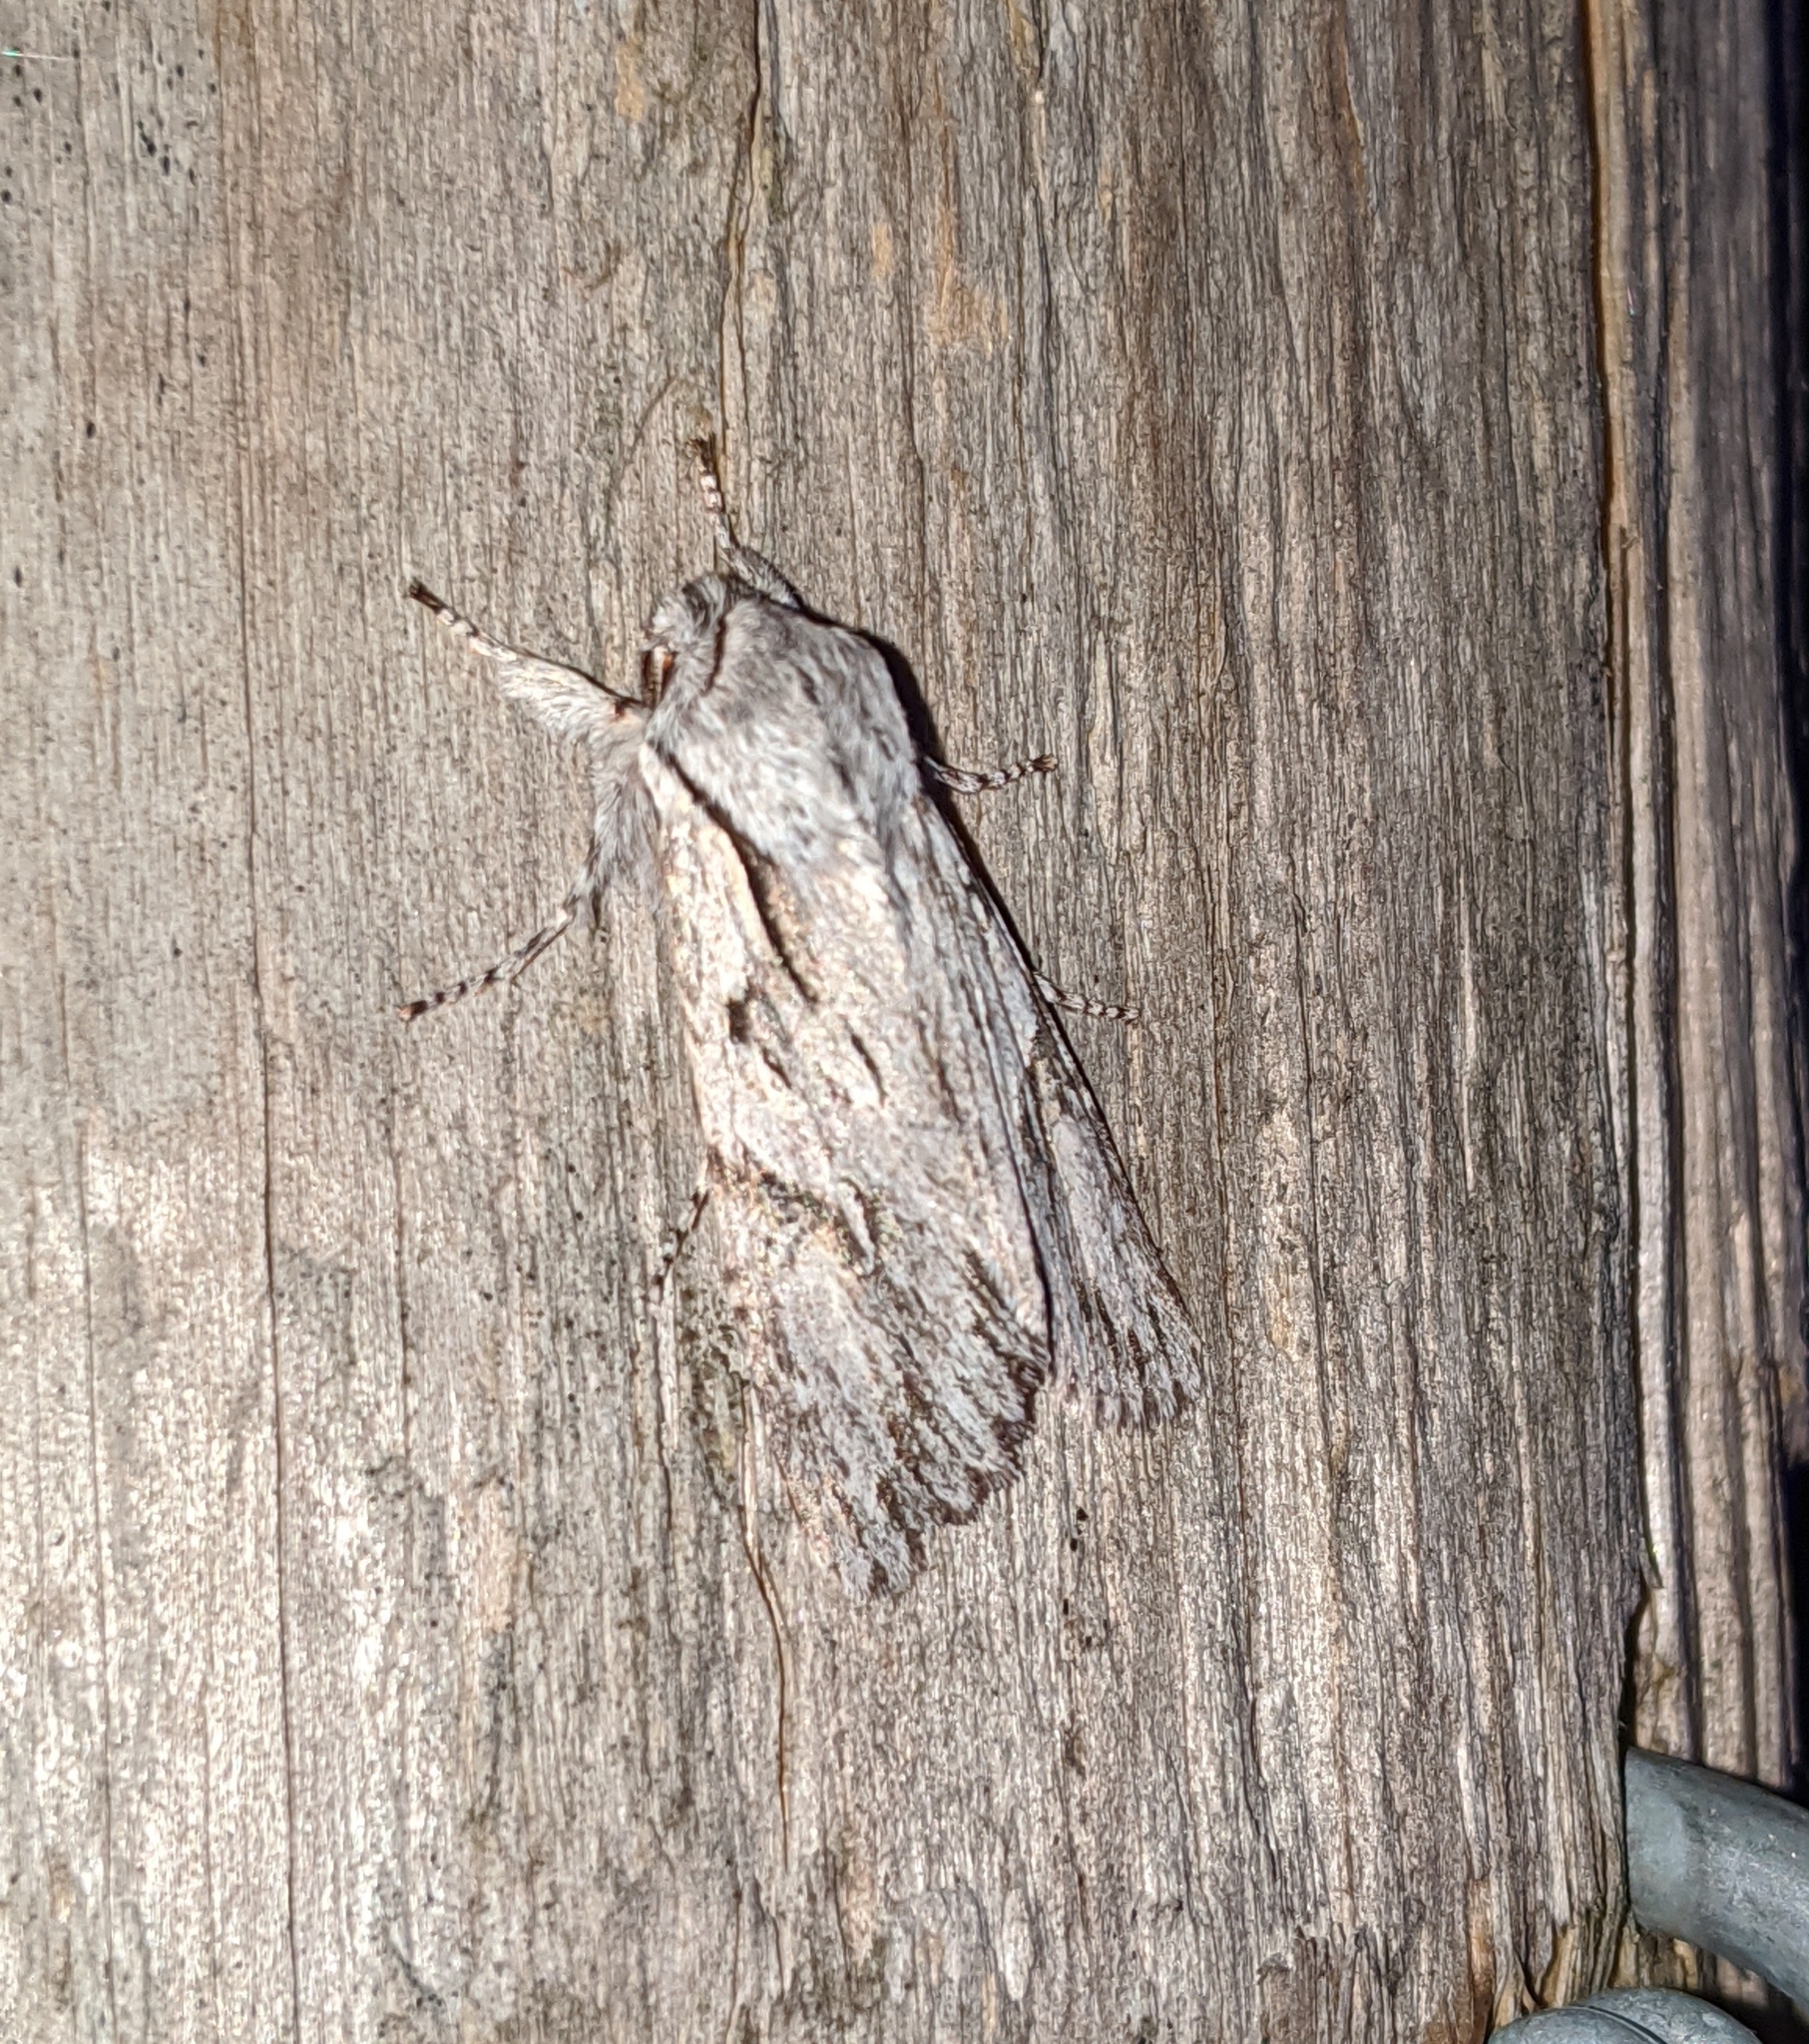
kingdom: Animalia
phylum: Arthropoda
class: Insecta
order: Lepidoptera
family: Noctuidae
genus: Egira
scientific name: Egira crucialis
